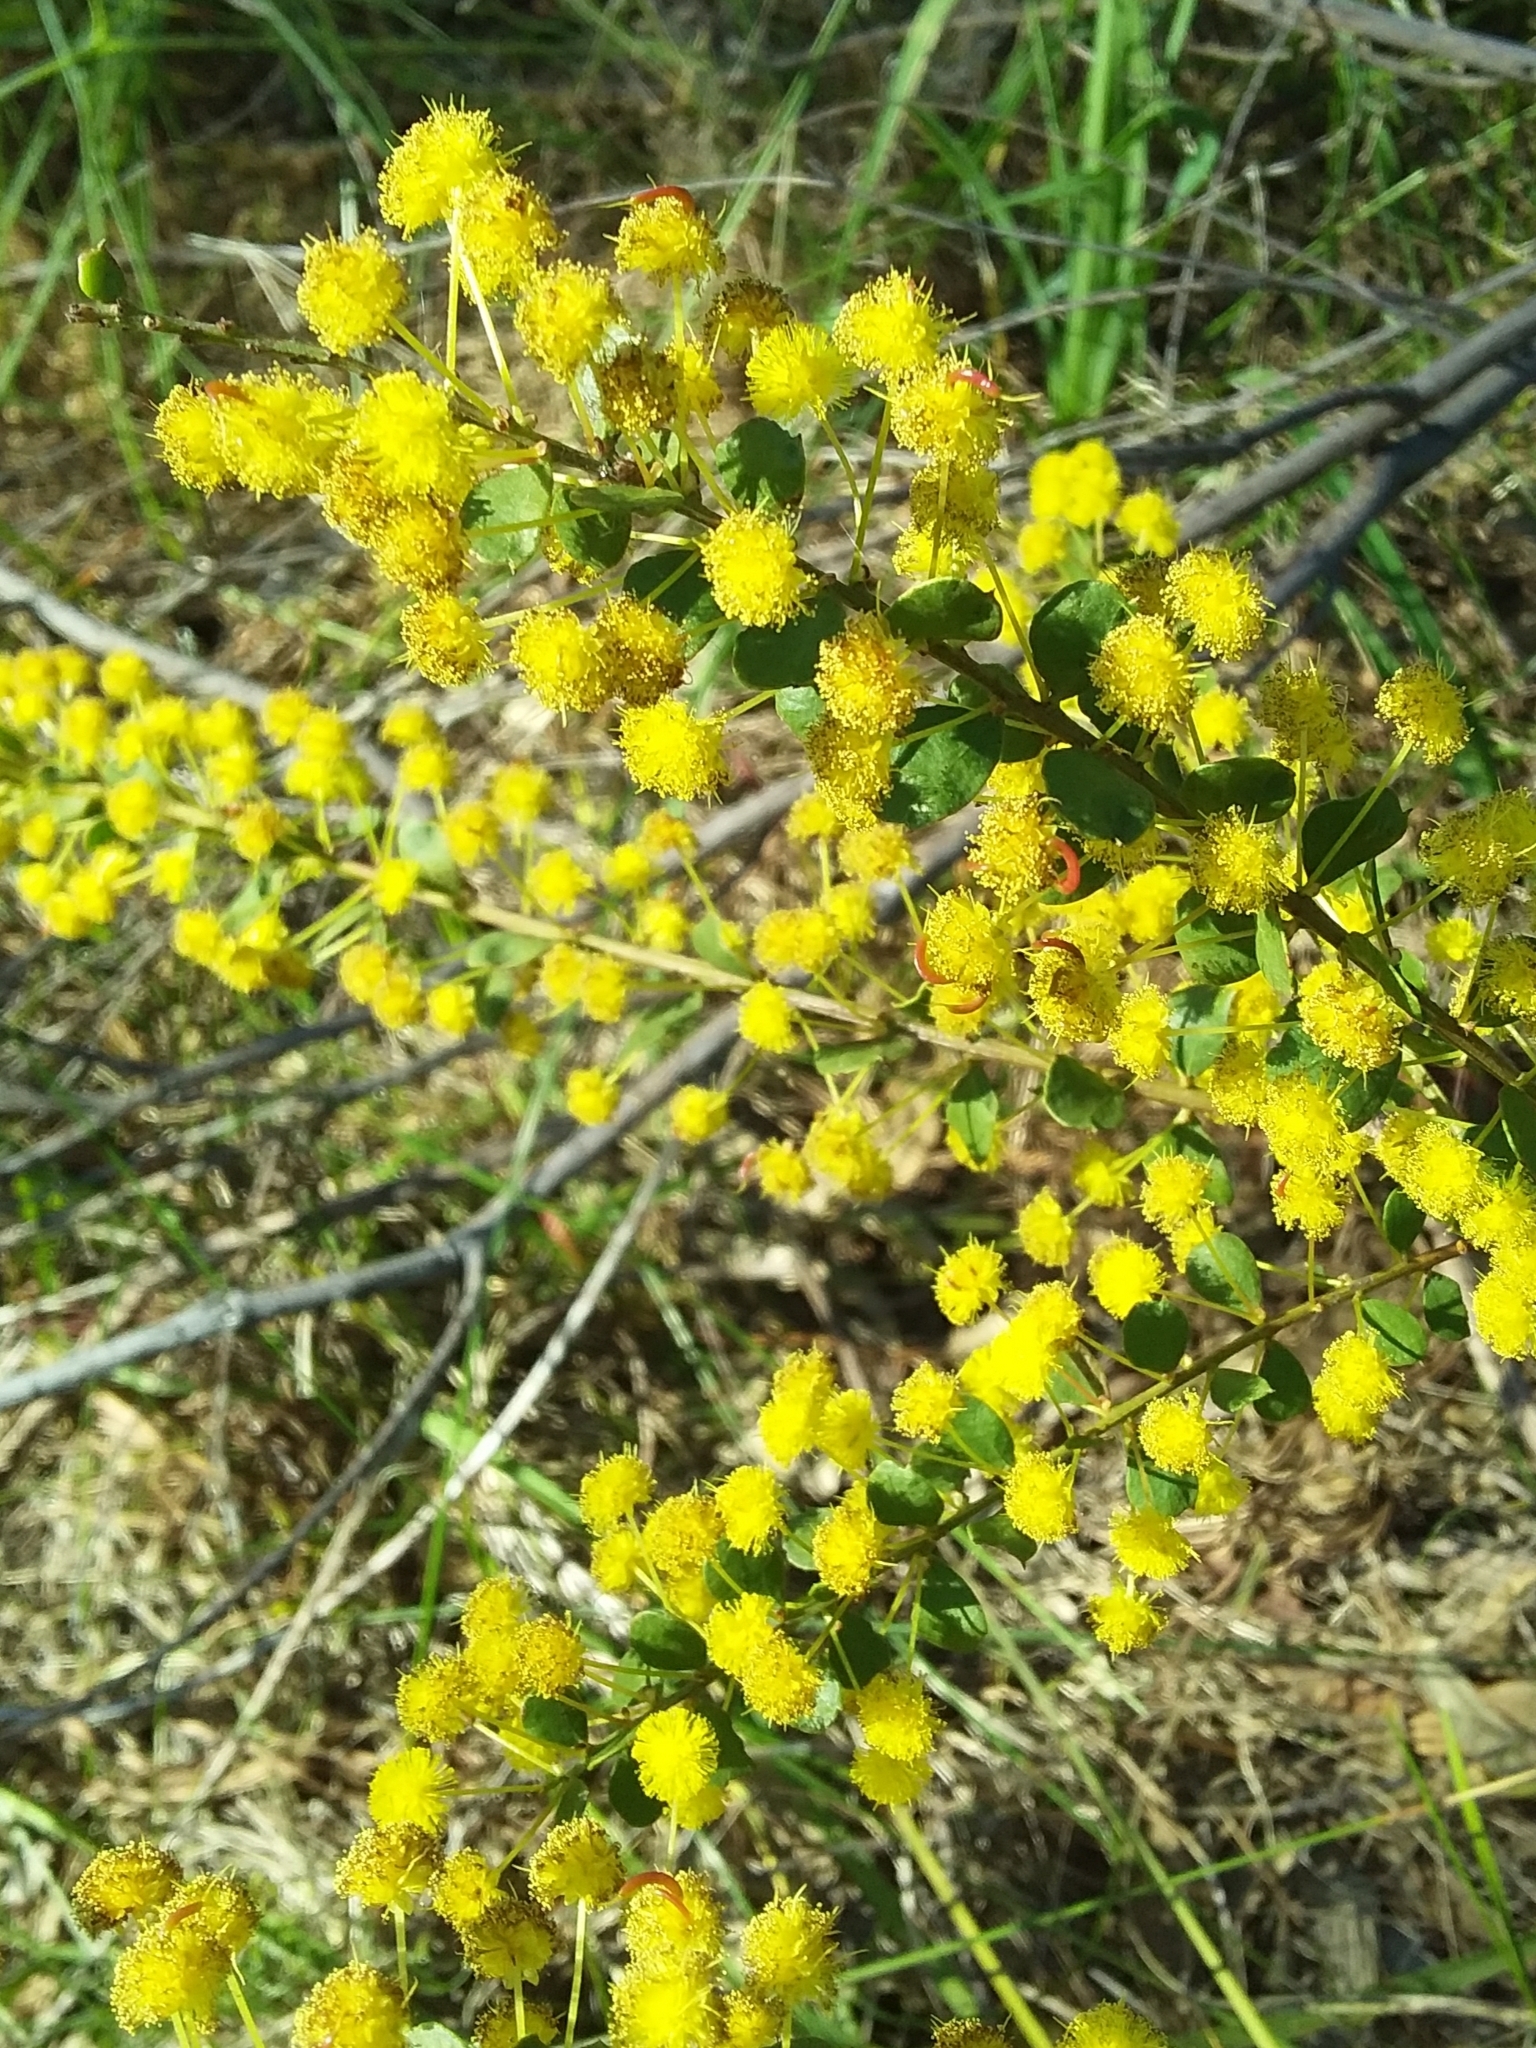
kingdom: Plantae
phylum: Tracheophyta
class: Magnoliopsida
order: Fabales
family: Fabaceae
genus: Acacia
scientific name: Acacia acinacea
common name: Gold-dust acacia
